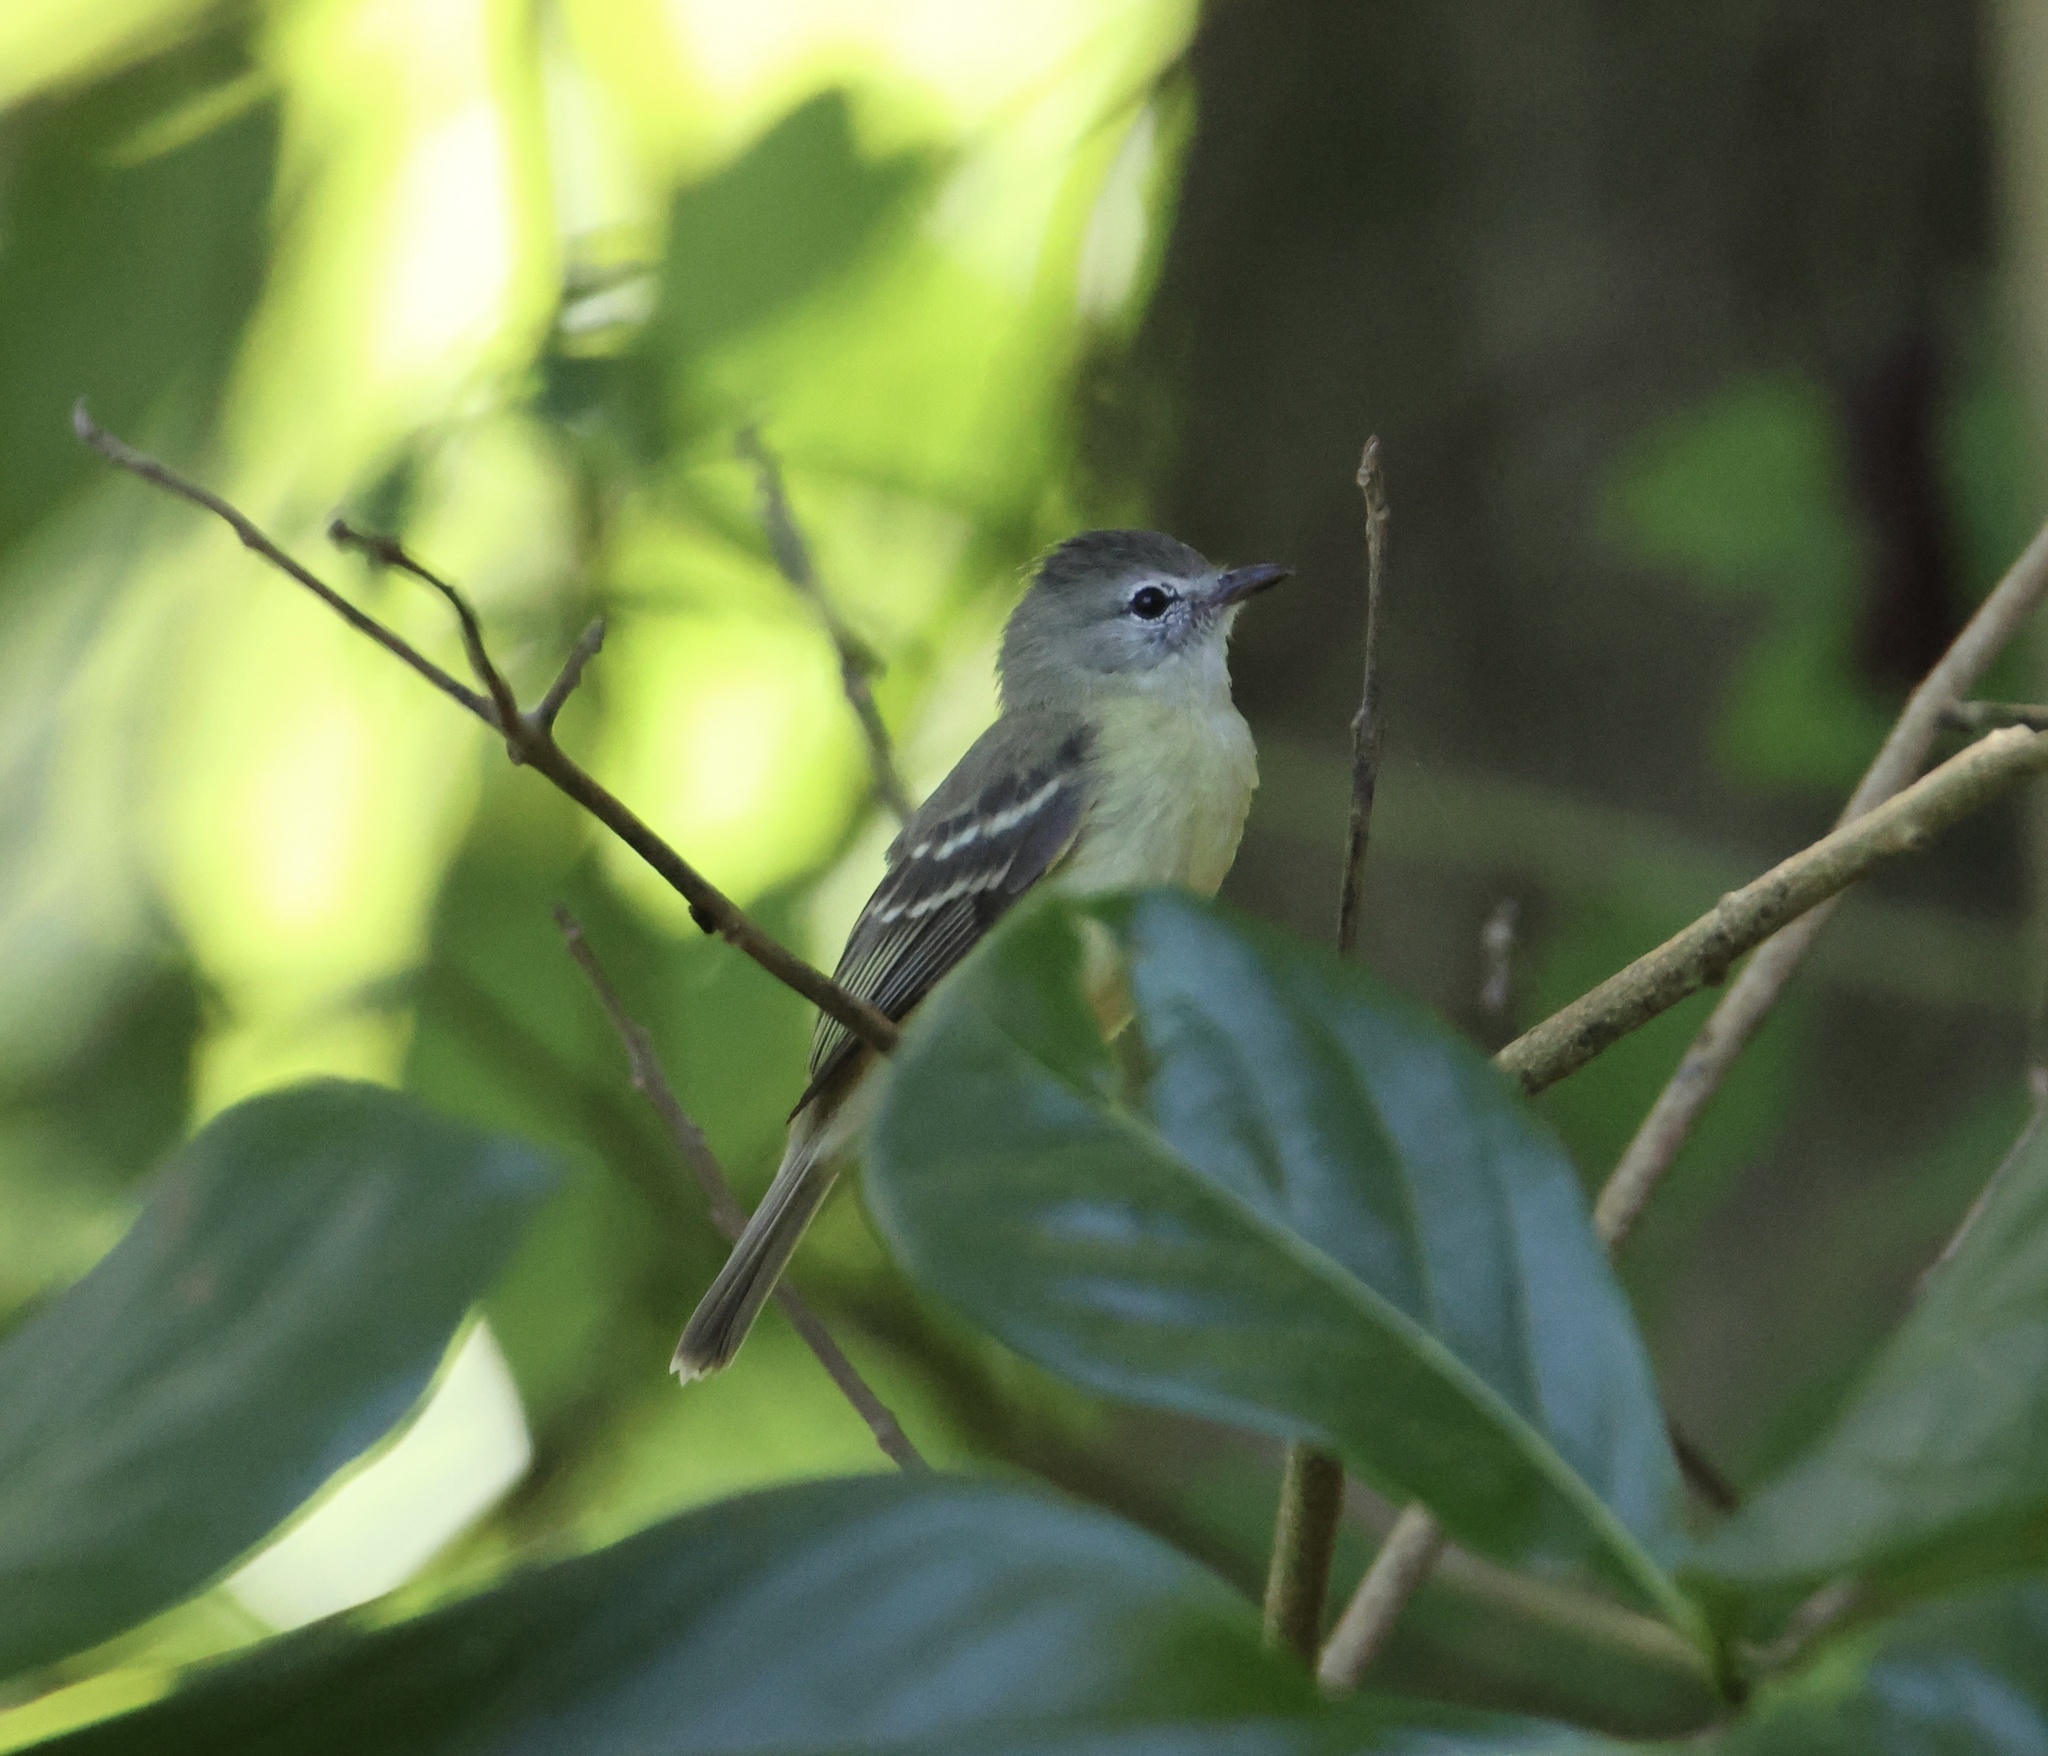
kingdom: Animalia
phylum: Chordata
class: Aves
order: Passeriformes
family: Tyrannidae
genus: Camptostoma
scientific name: Camptostoma obsoletum
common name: Southern beardless-tyrannulet
